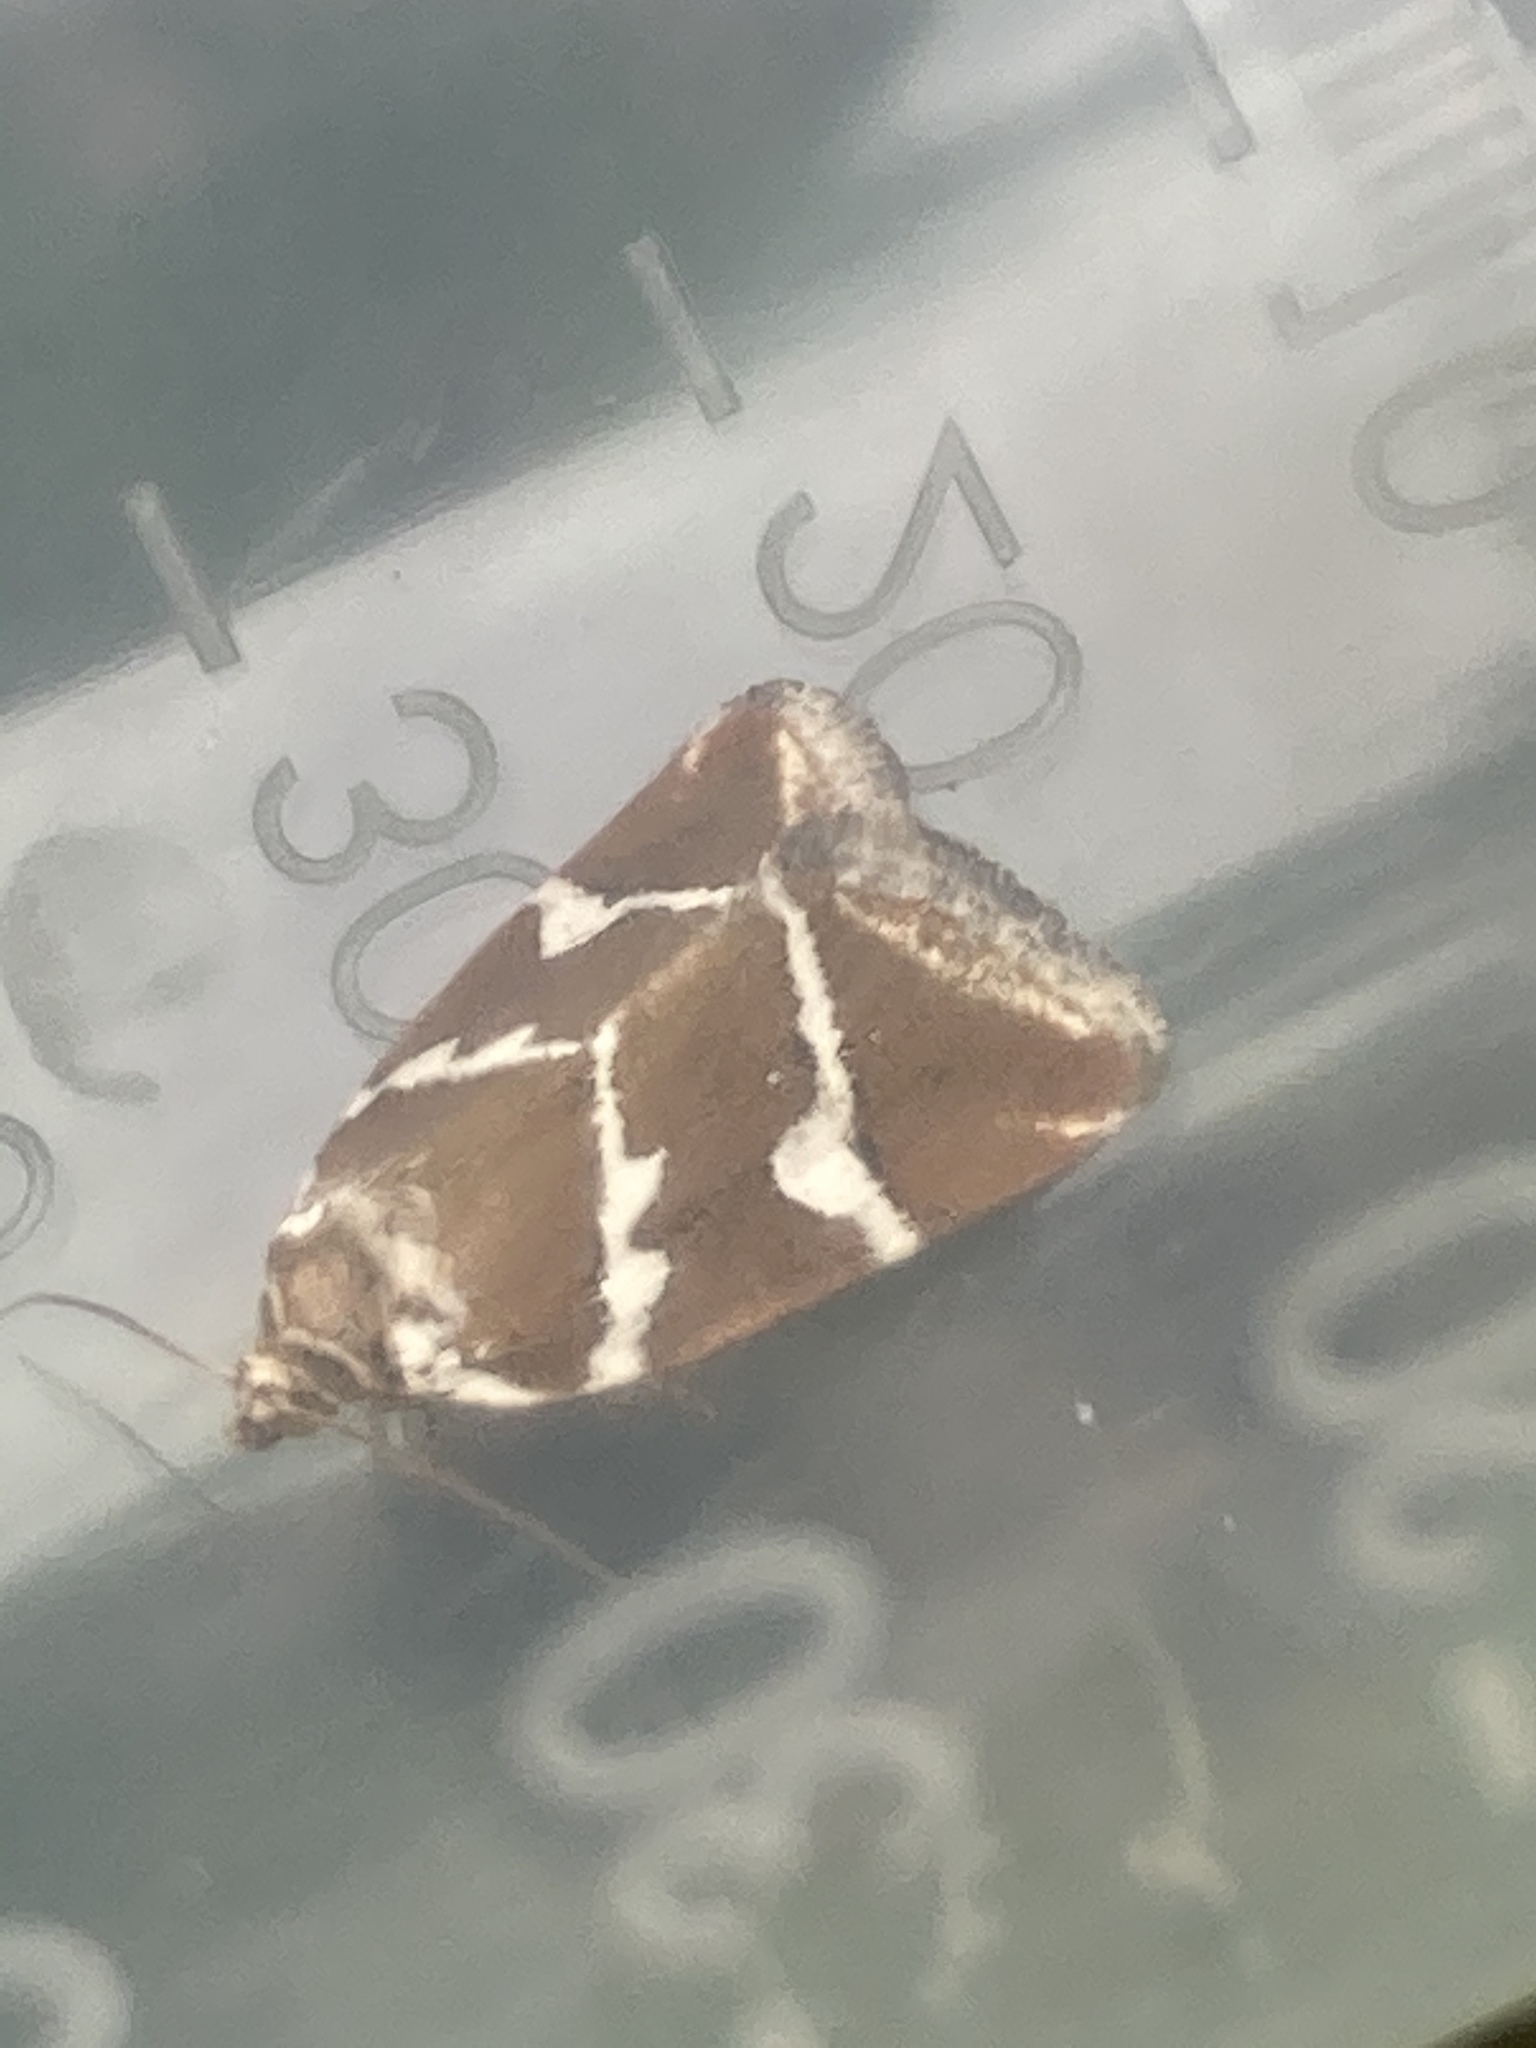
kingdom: Animalia
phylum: Arthropoda
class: Insecta
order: Lepidoptera
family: Noctuidae
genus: Deltote
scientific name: Deltote bankiana
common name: Silver barred
